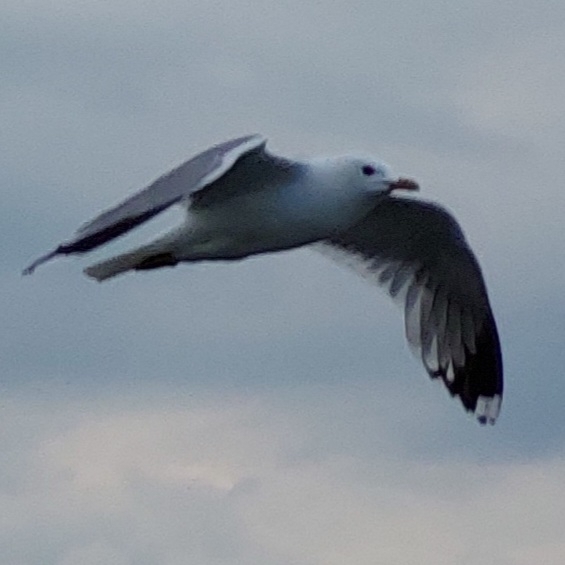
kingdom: Animalia
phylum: Chordata
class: Aves
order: Charadriiformes
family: Laridae
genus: Larus
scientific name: Larus canus
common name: Mew gull
